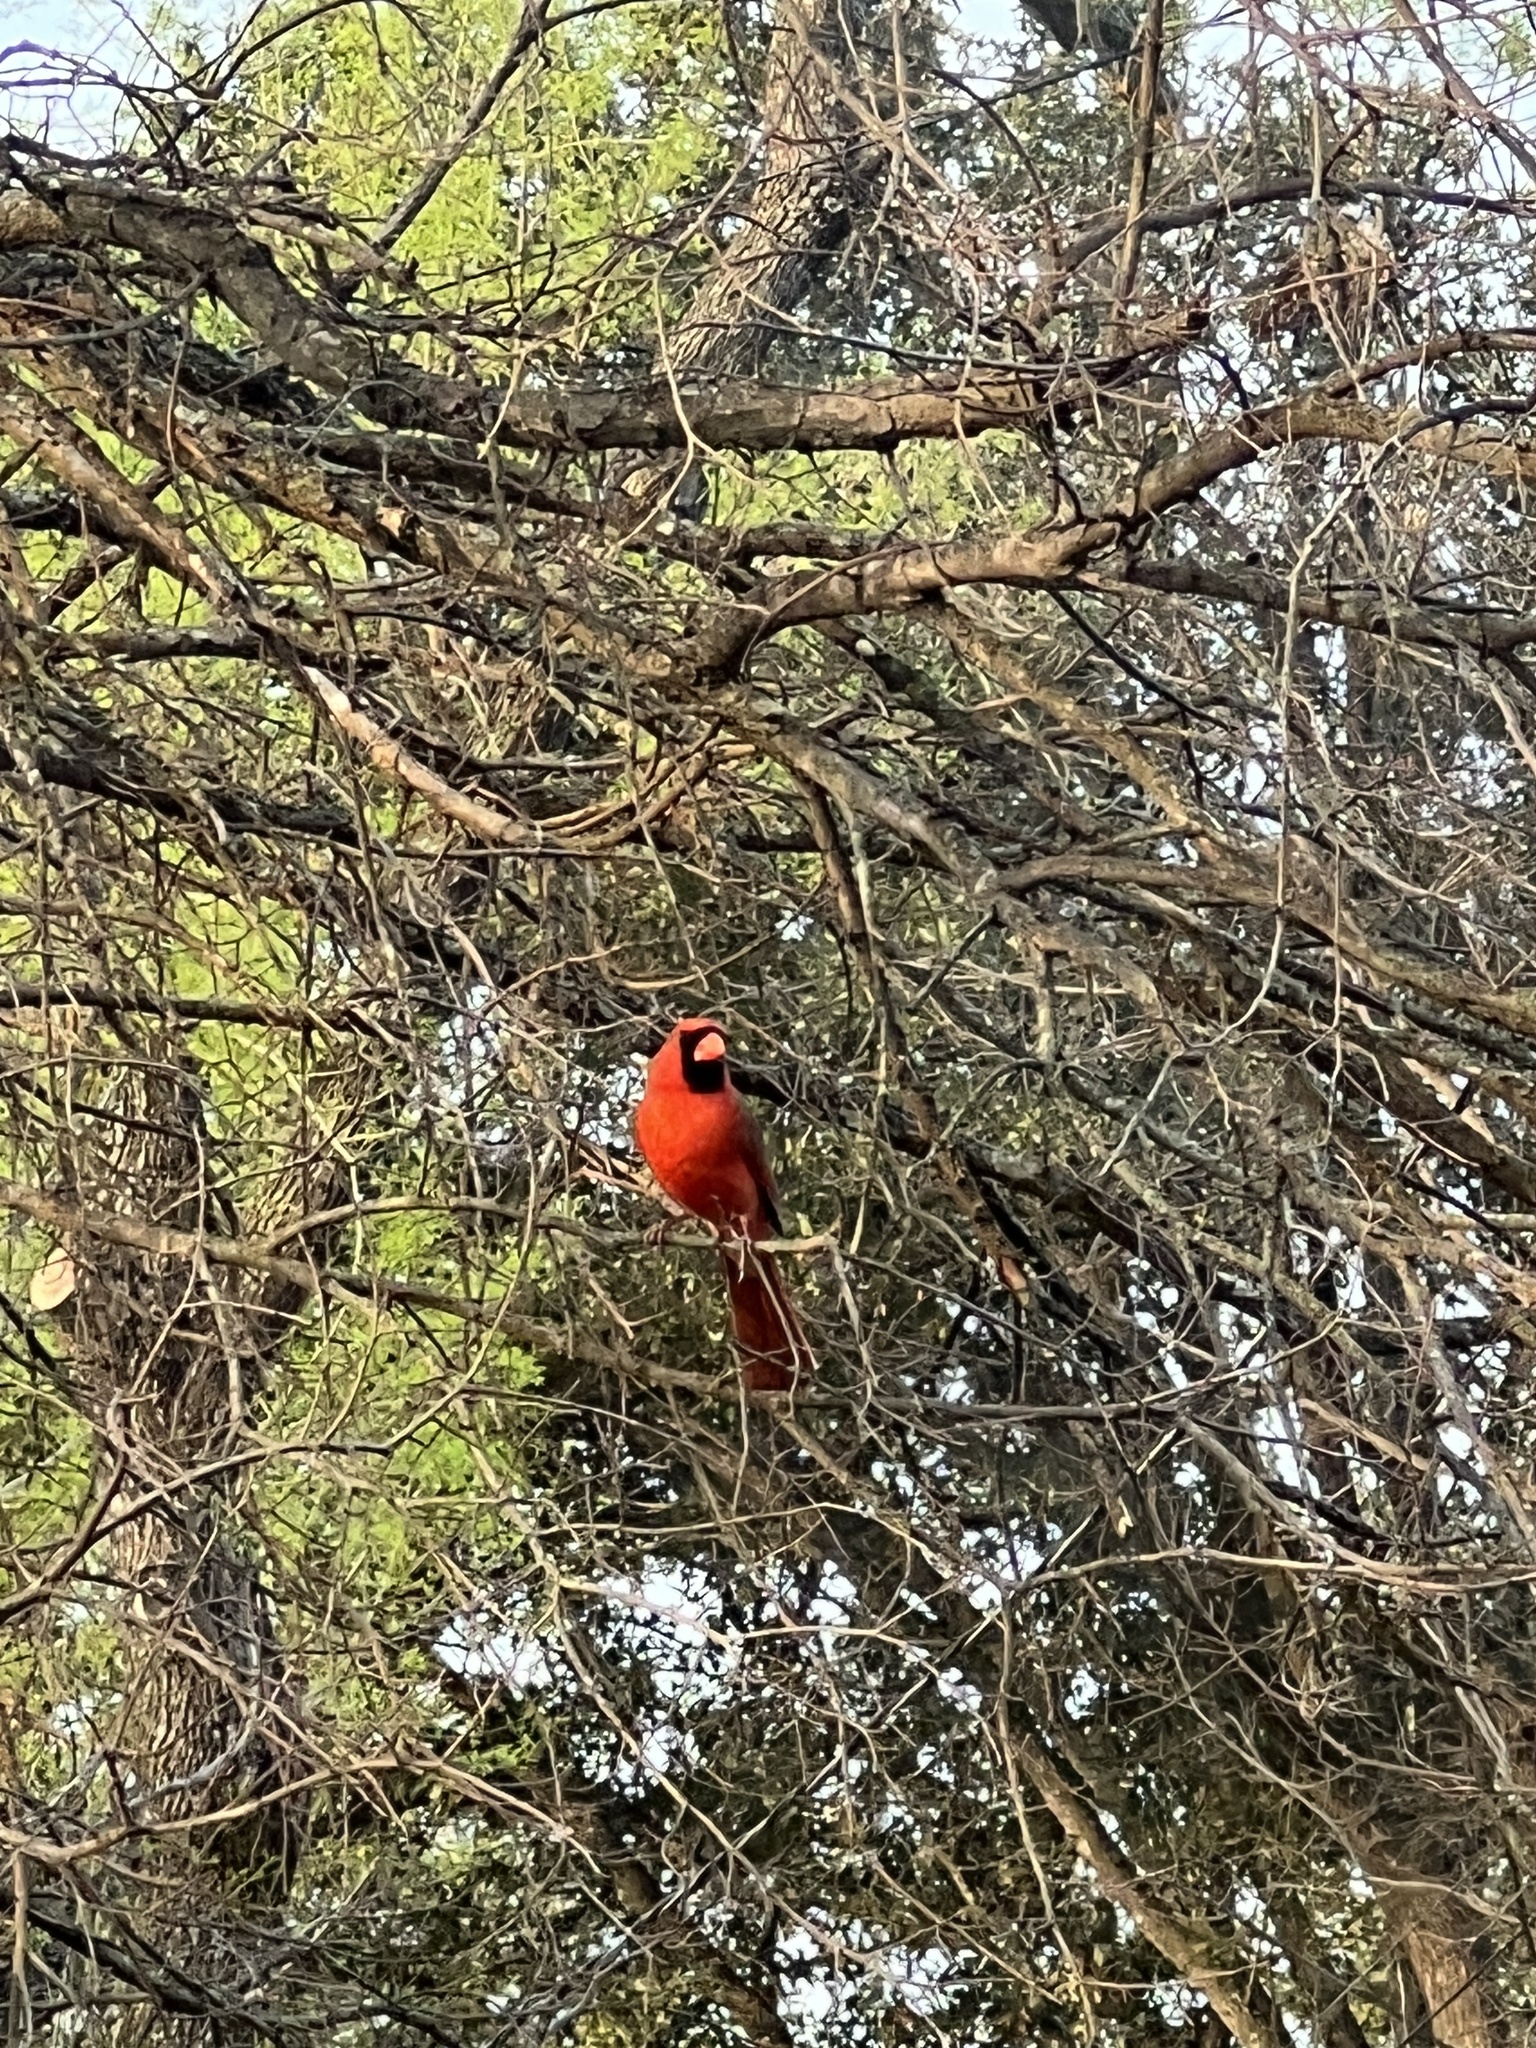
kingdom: Animalia
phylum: Chordata
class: Aves
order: Passeriformes
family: Cardinalidae
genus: Cardinalis
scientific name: Cardinalis cardinalis
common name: Northern cardinal
